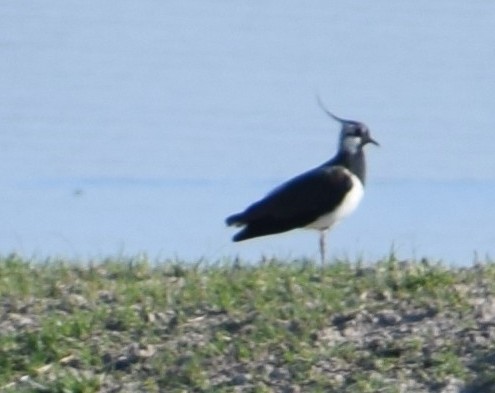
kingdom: Animalia
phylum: Chordata
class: Aves
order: Charadriiformes
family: Charadriidae
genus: Vanellus
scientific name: Vanellus vanellus
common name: Northern lapwing
